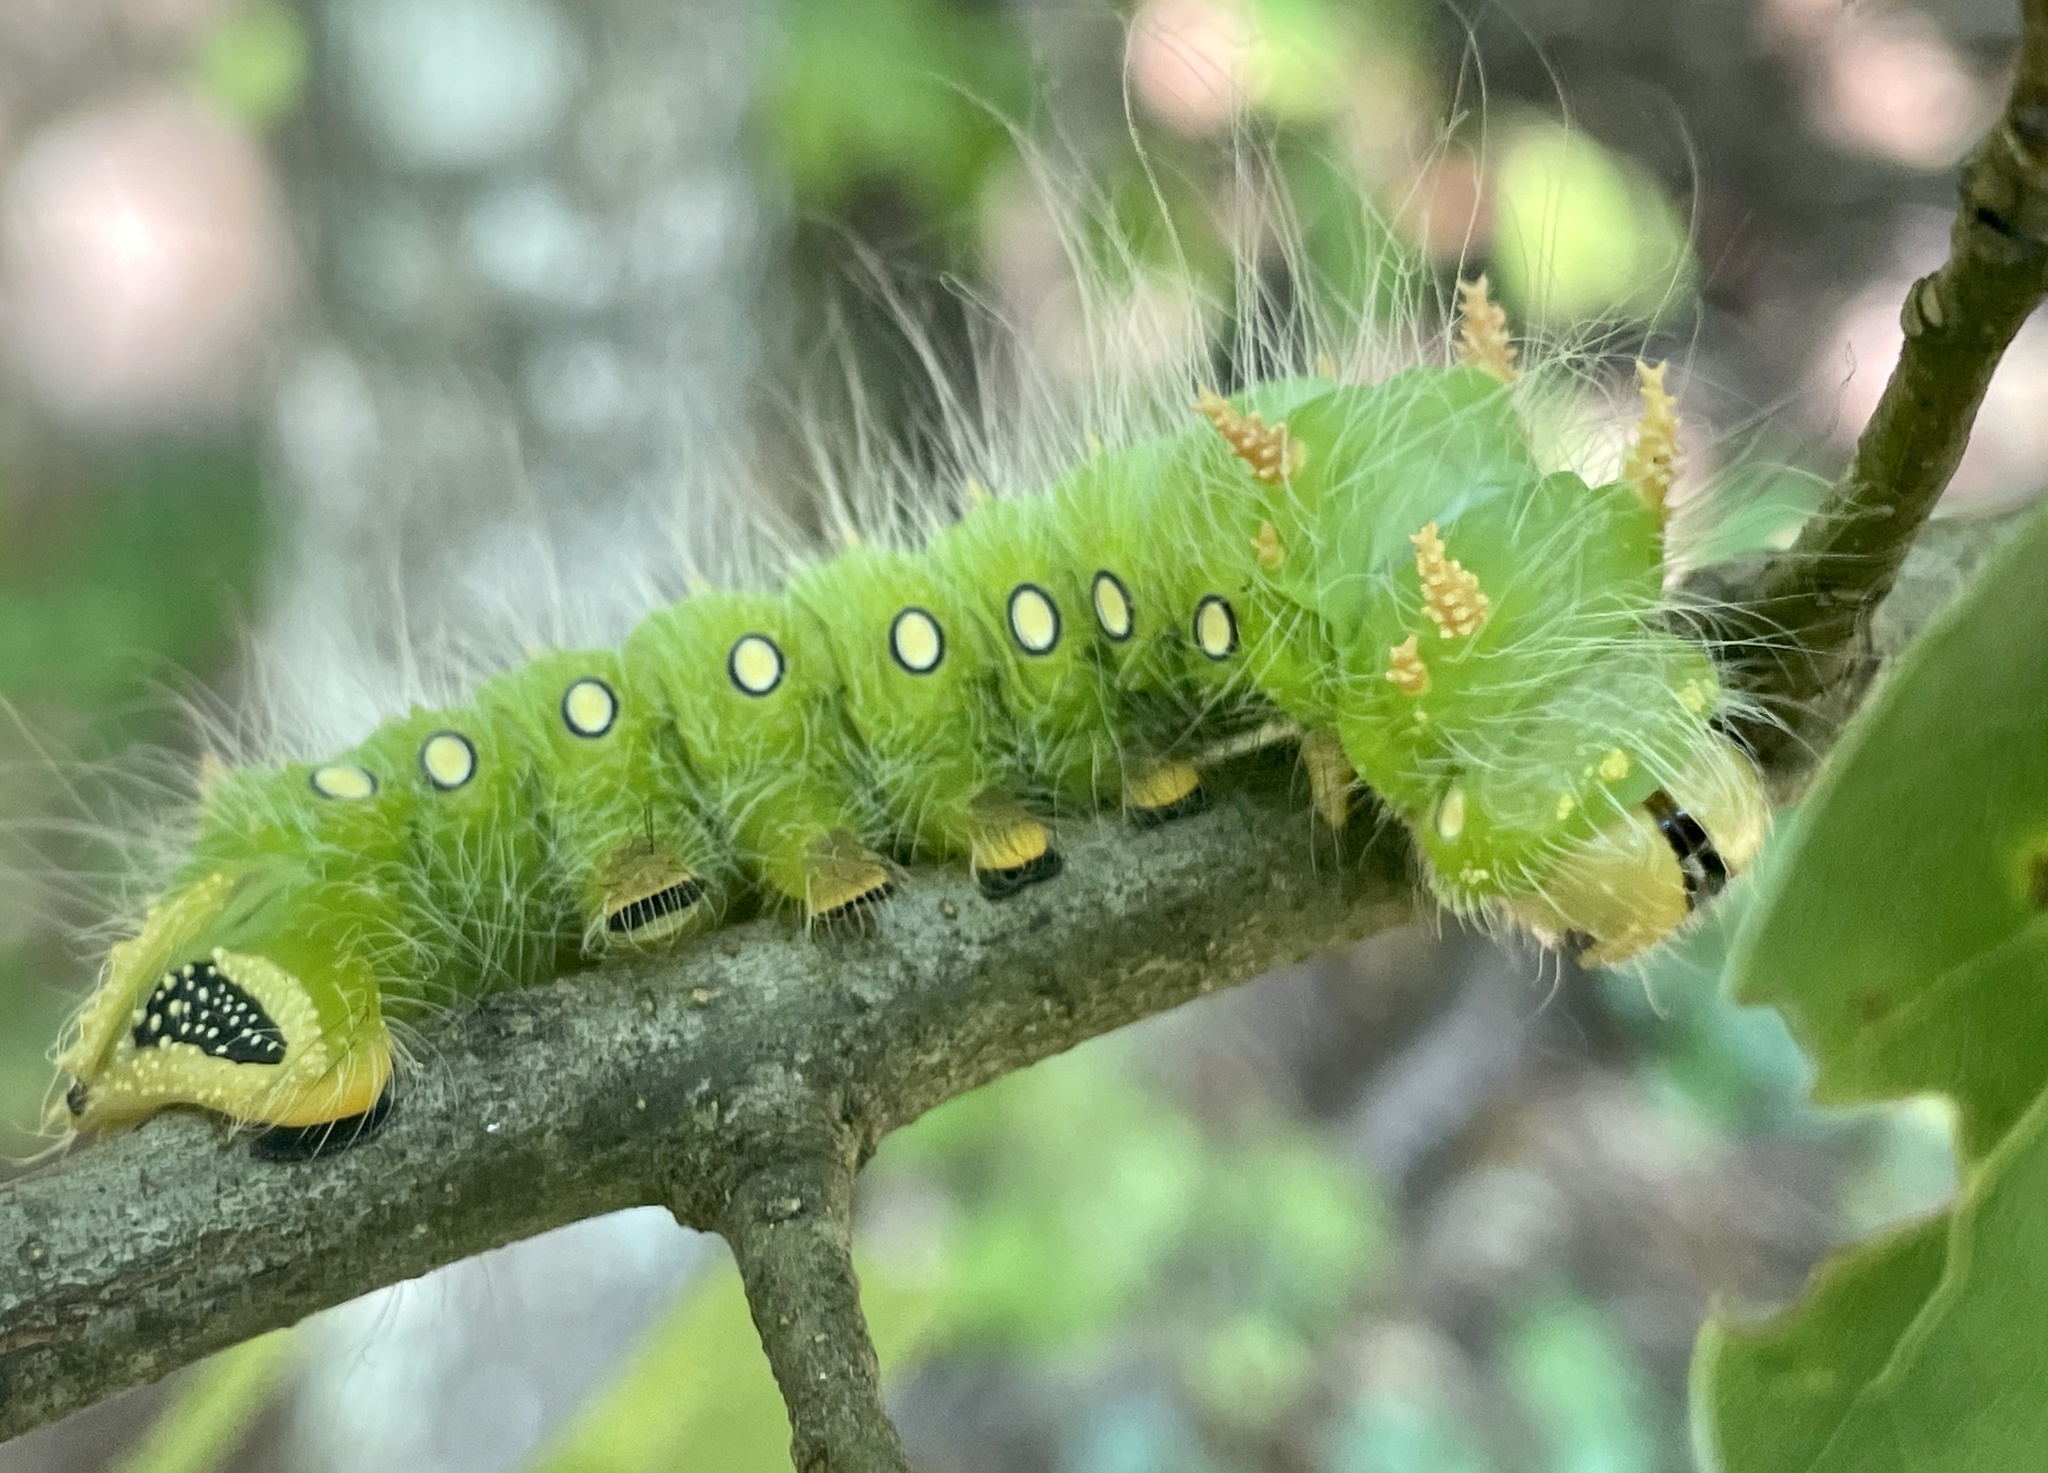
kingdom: Animalia
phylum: Arthropoda
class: Insecta
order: Lepidoptera
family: Saturniidae
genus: Eacles
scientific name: Eacles imperialis
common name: Imperial moth
